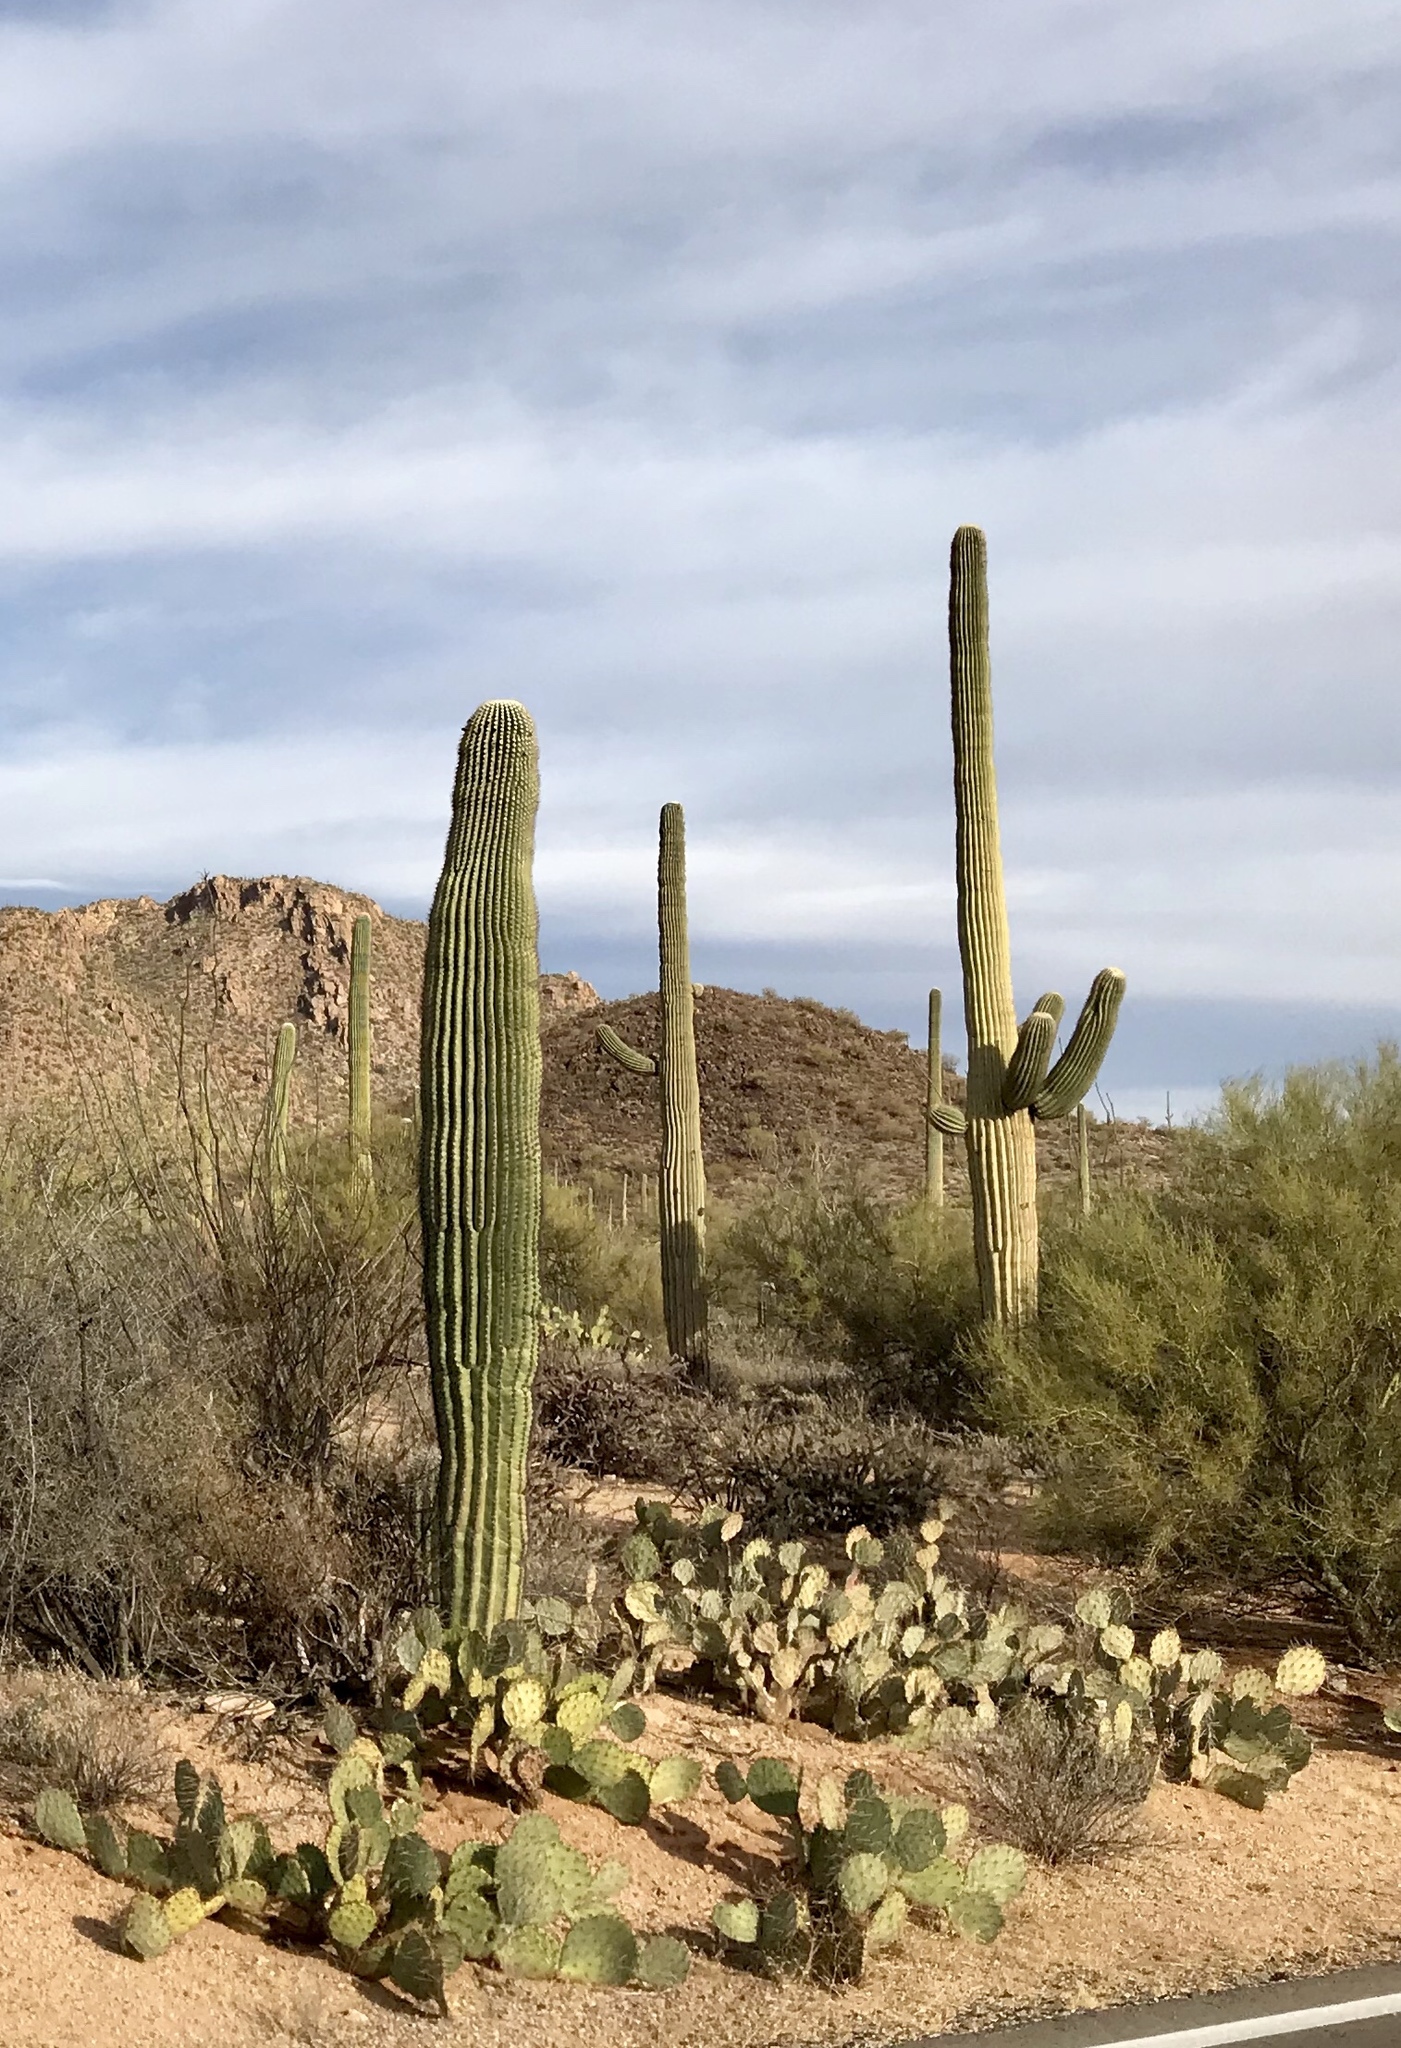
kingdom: Plantae
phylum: Tracheophyta
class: Magnoliopsida
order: Caryophyllales
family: Cactaceae
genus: Carnegiea
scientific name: Carnegiea gigantea
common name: Saguaro
